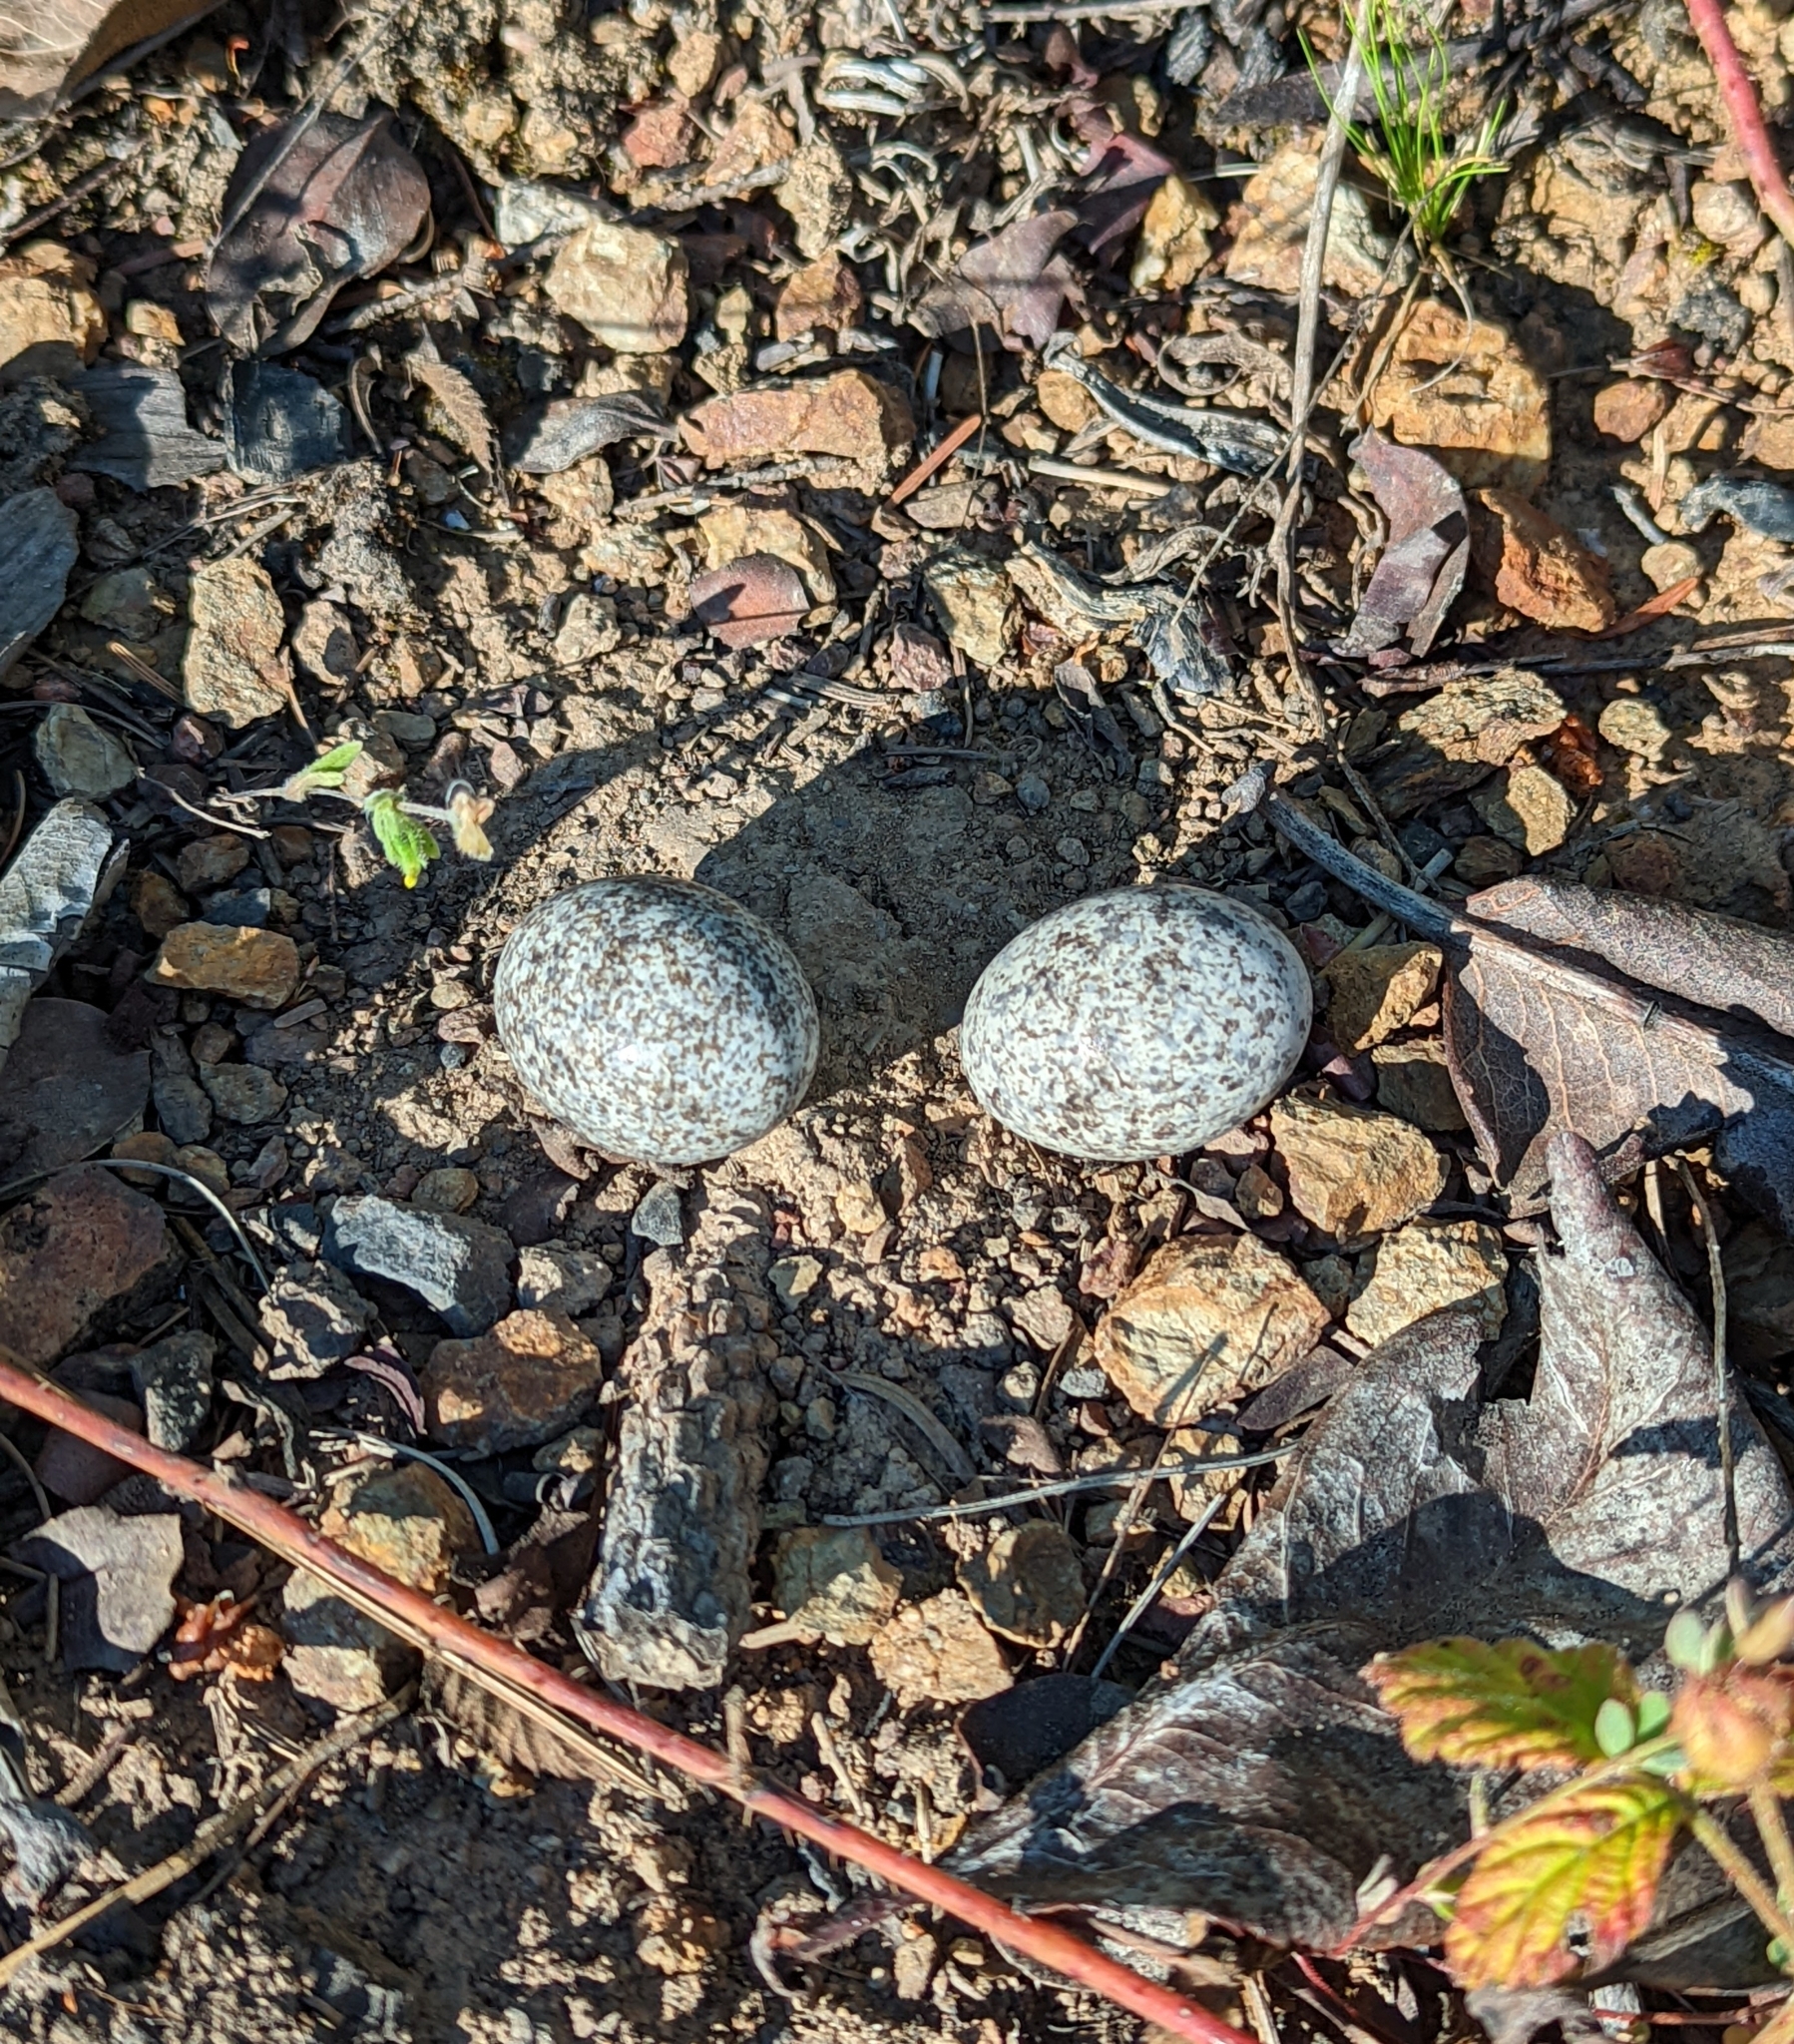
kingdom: Animalia
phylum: Chordata
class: Aves
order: Caprimulgiformes
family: Caprimulgidae
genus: Chordeiles
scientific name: Chordeiles minor
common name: Common nighthawk
